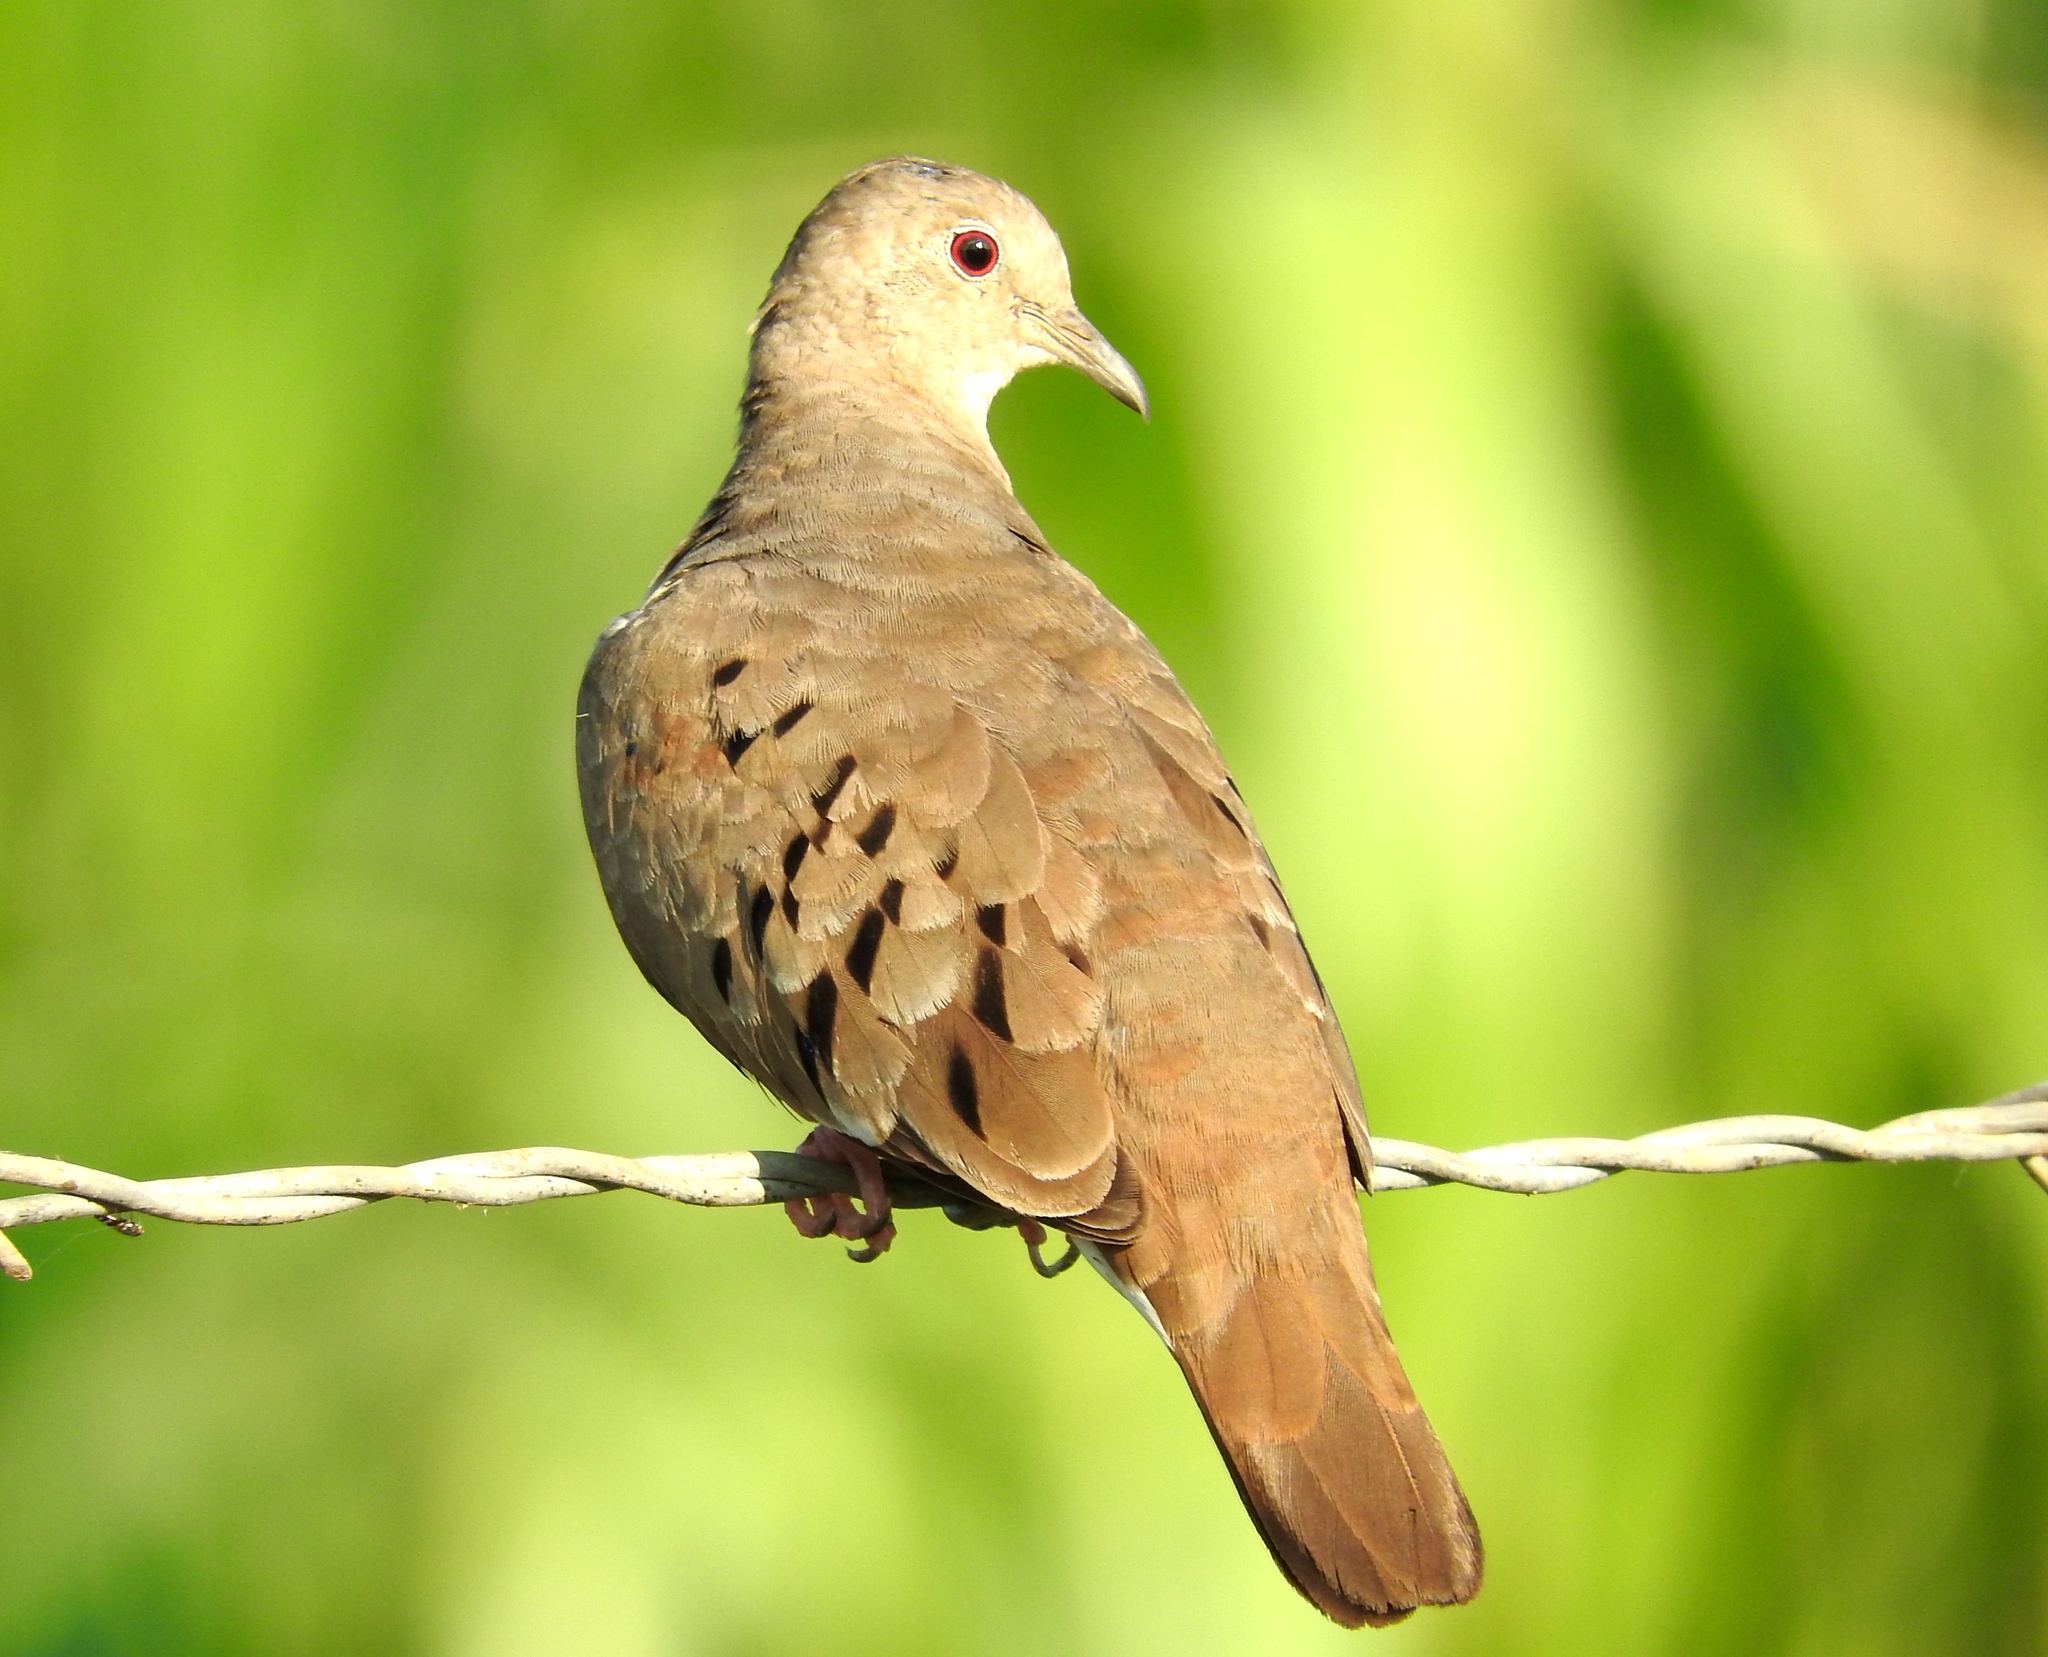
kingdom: Animalia
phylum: Chordata
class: Aves
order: Columbiformes
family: Columbidae
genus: Columbina
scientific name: Columbina talpacoti
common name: Ruddy ground dove
